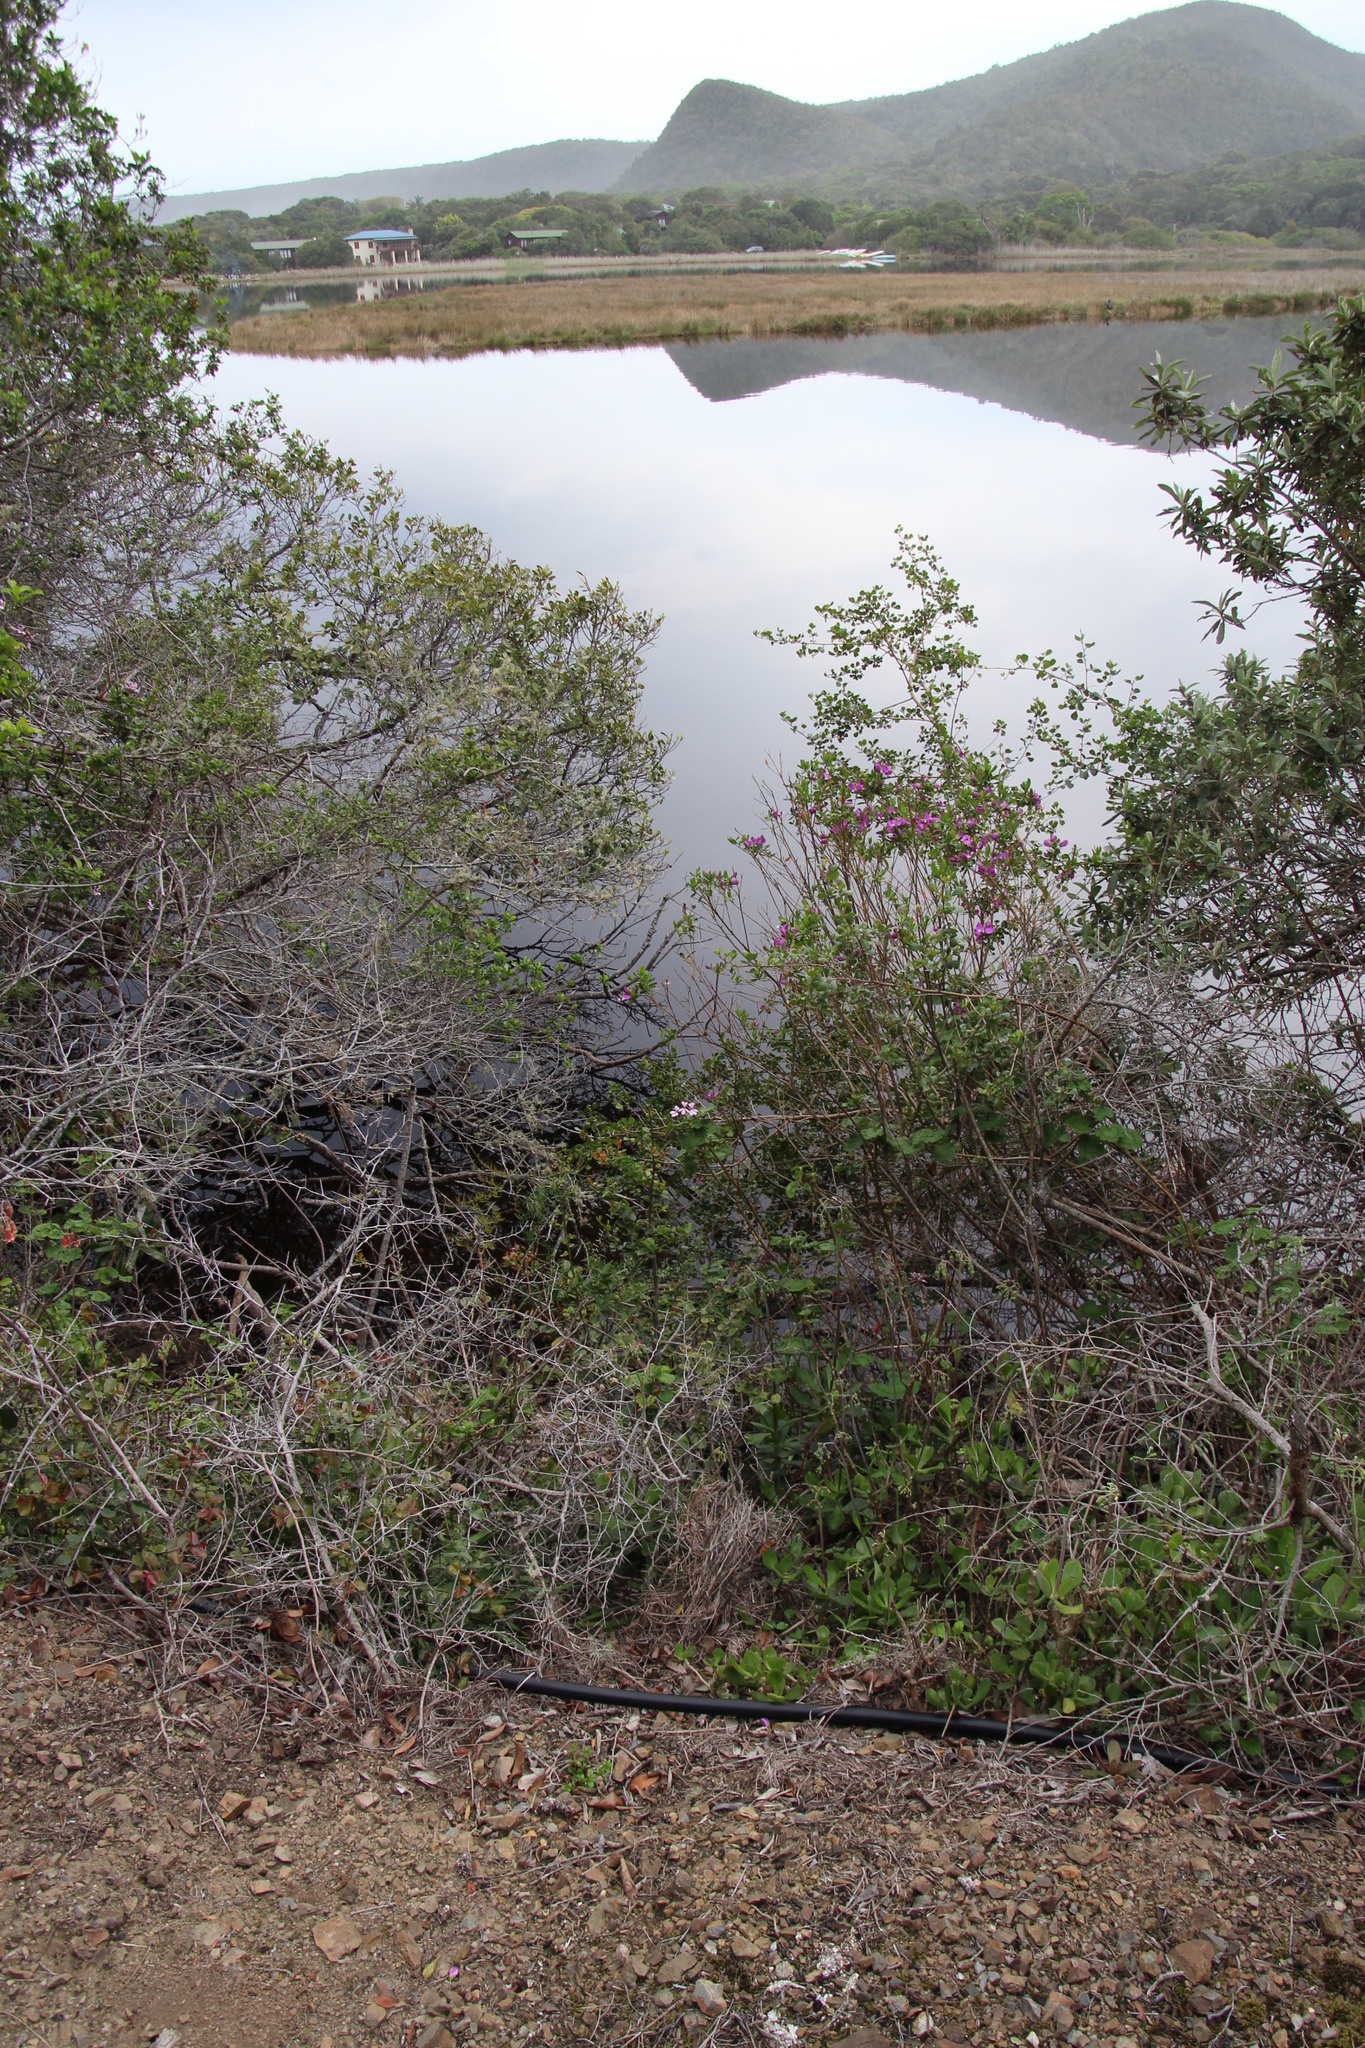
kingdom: Plantae
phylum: Tracheophyta
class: Magnoliopsida
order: Geraniales
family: Geraniaceae
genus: Pelargonium
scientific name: Pelargonium zonale
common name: Horseshoe geranium
